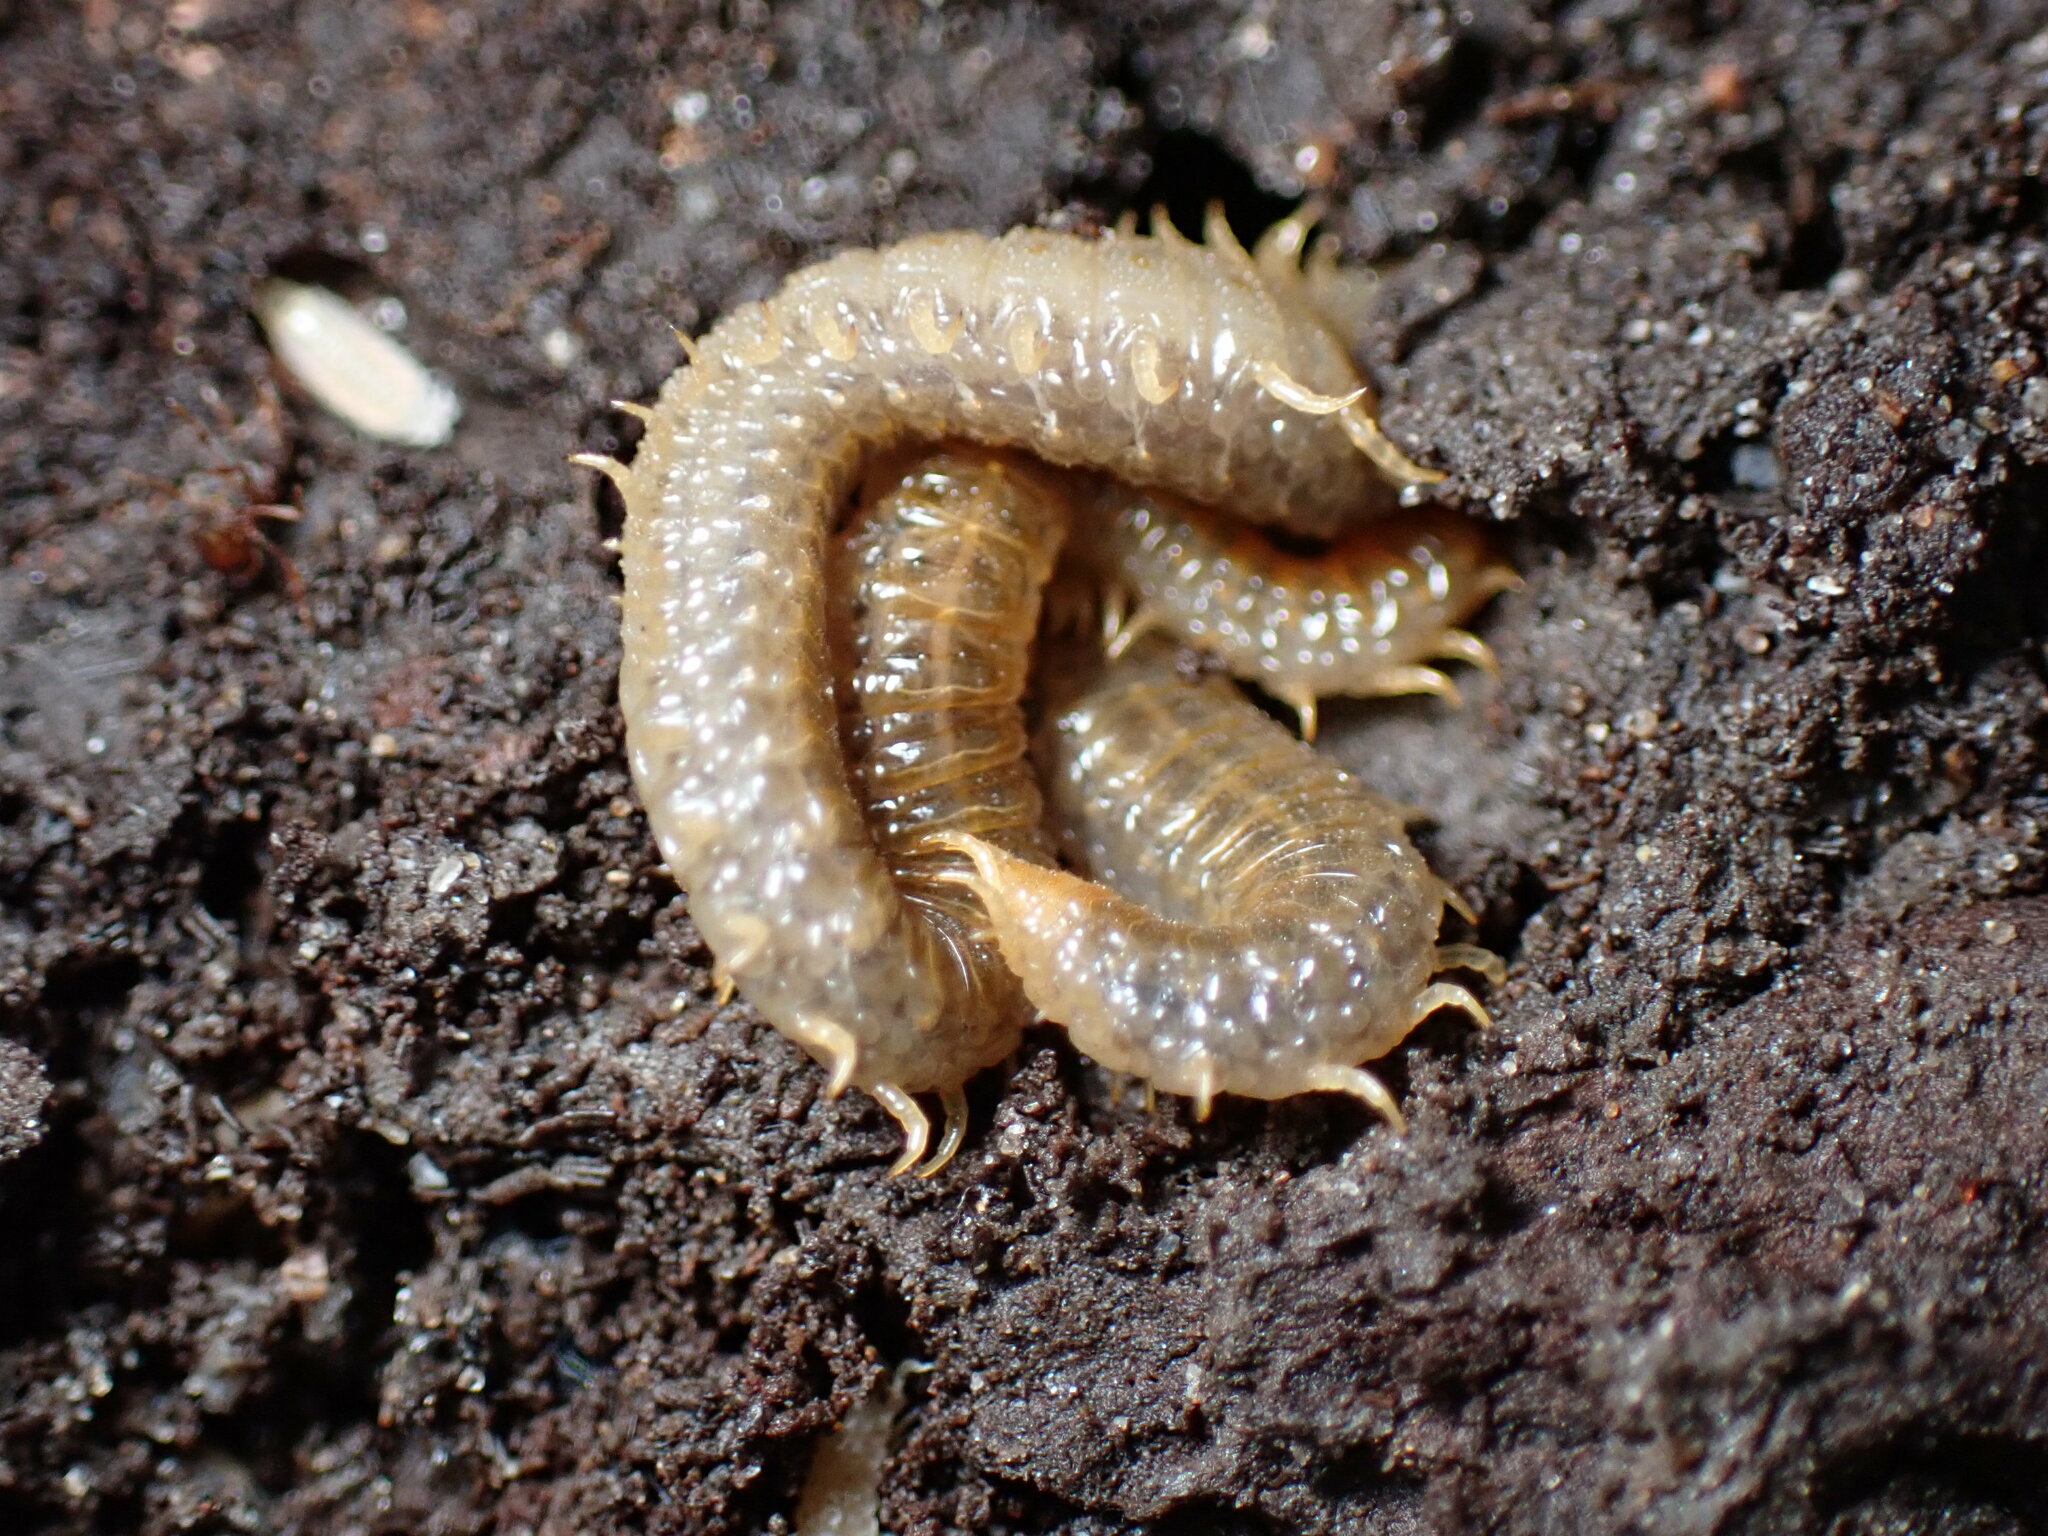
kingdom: Animalia
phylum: Arthropoda
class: Chilopoda
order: Geophilomorpha
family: Dignathodontidae
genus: Henia
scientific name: Henia vesuviana
